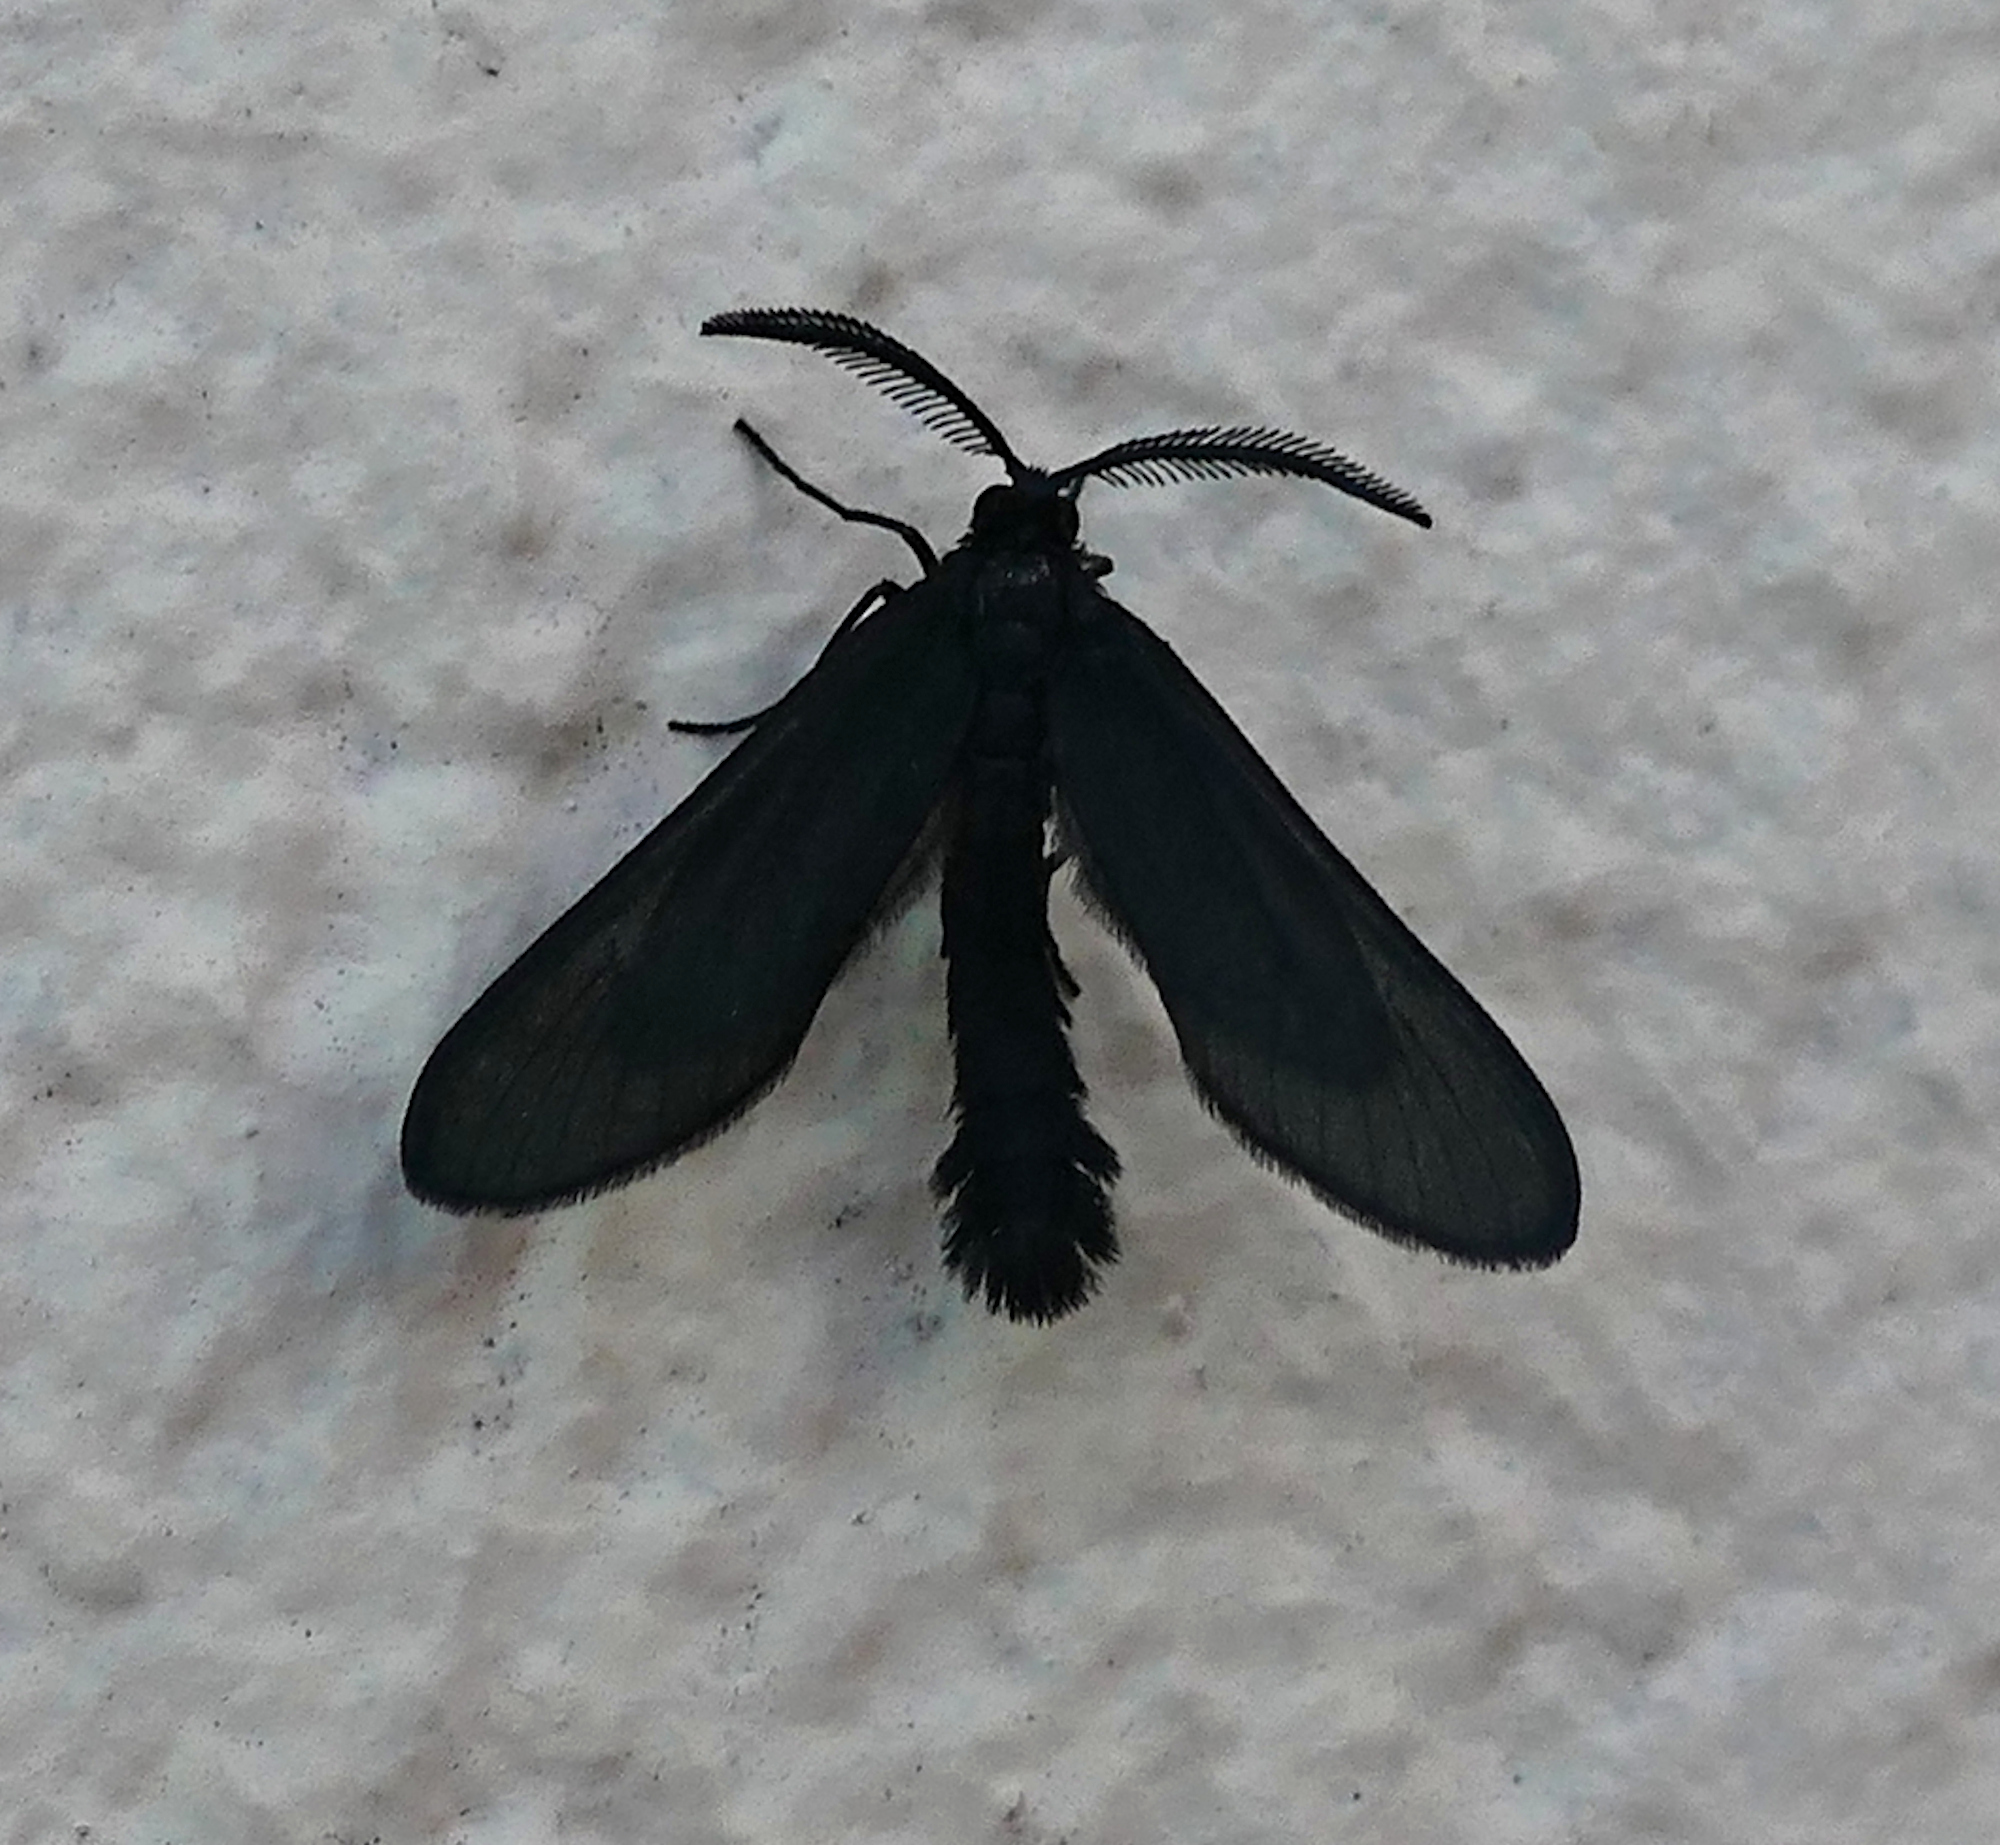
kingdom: Animalia
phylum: Arthropoda
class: Insecta
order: Lepidoptera
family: Zygaenidae
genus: Harrisina
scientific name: Harrisina coracina
